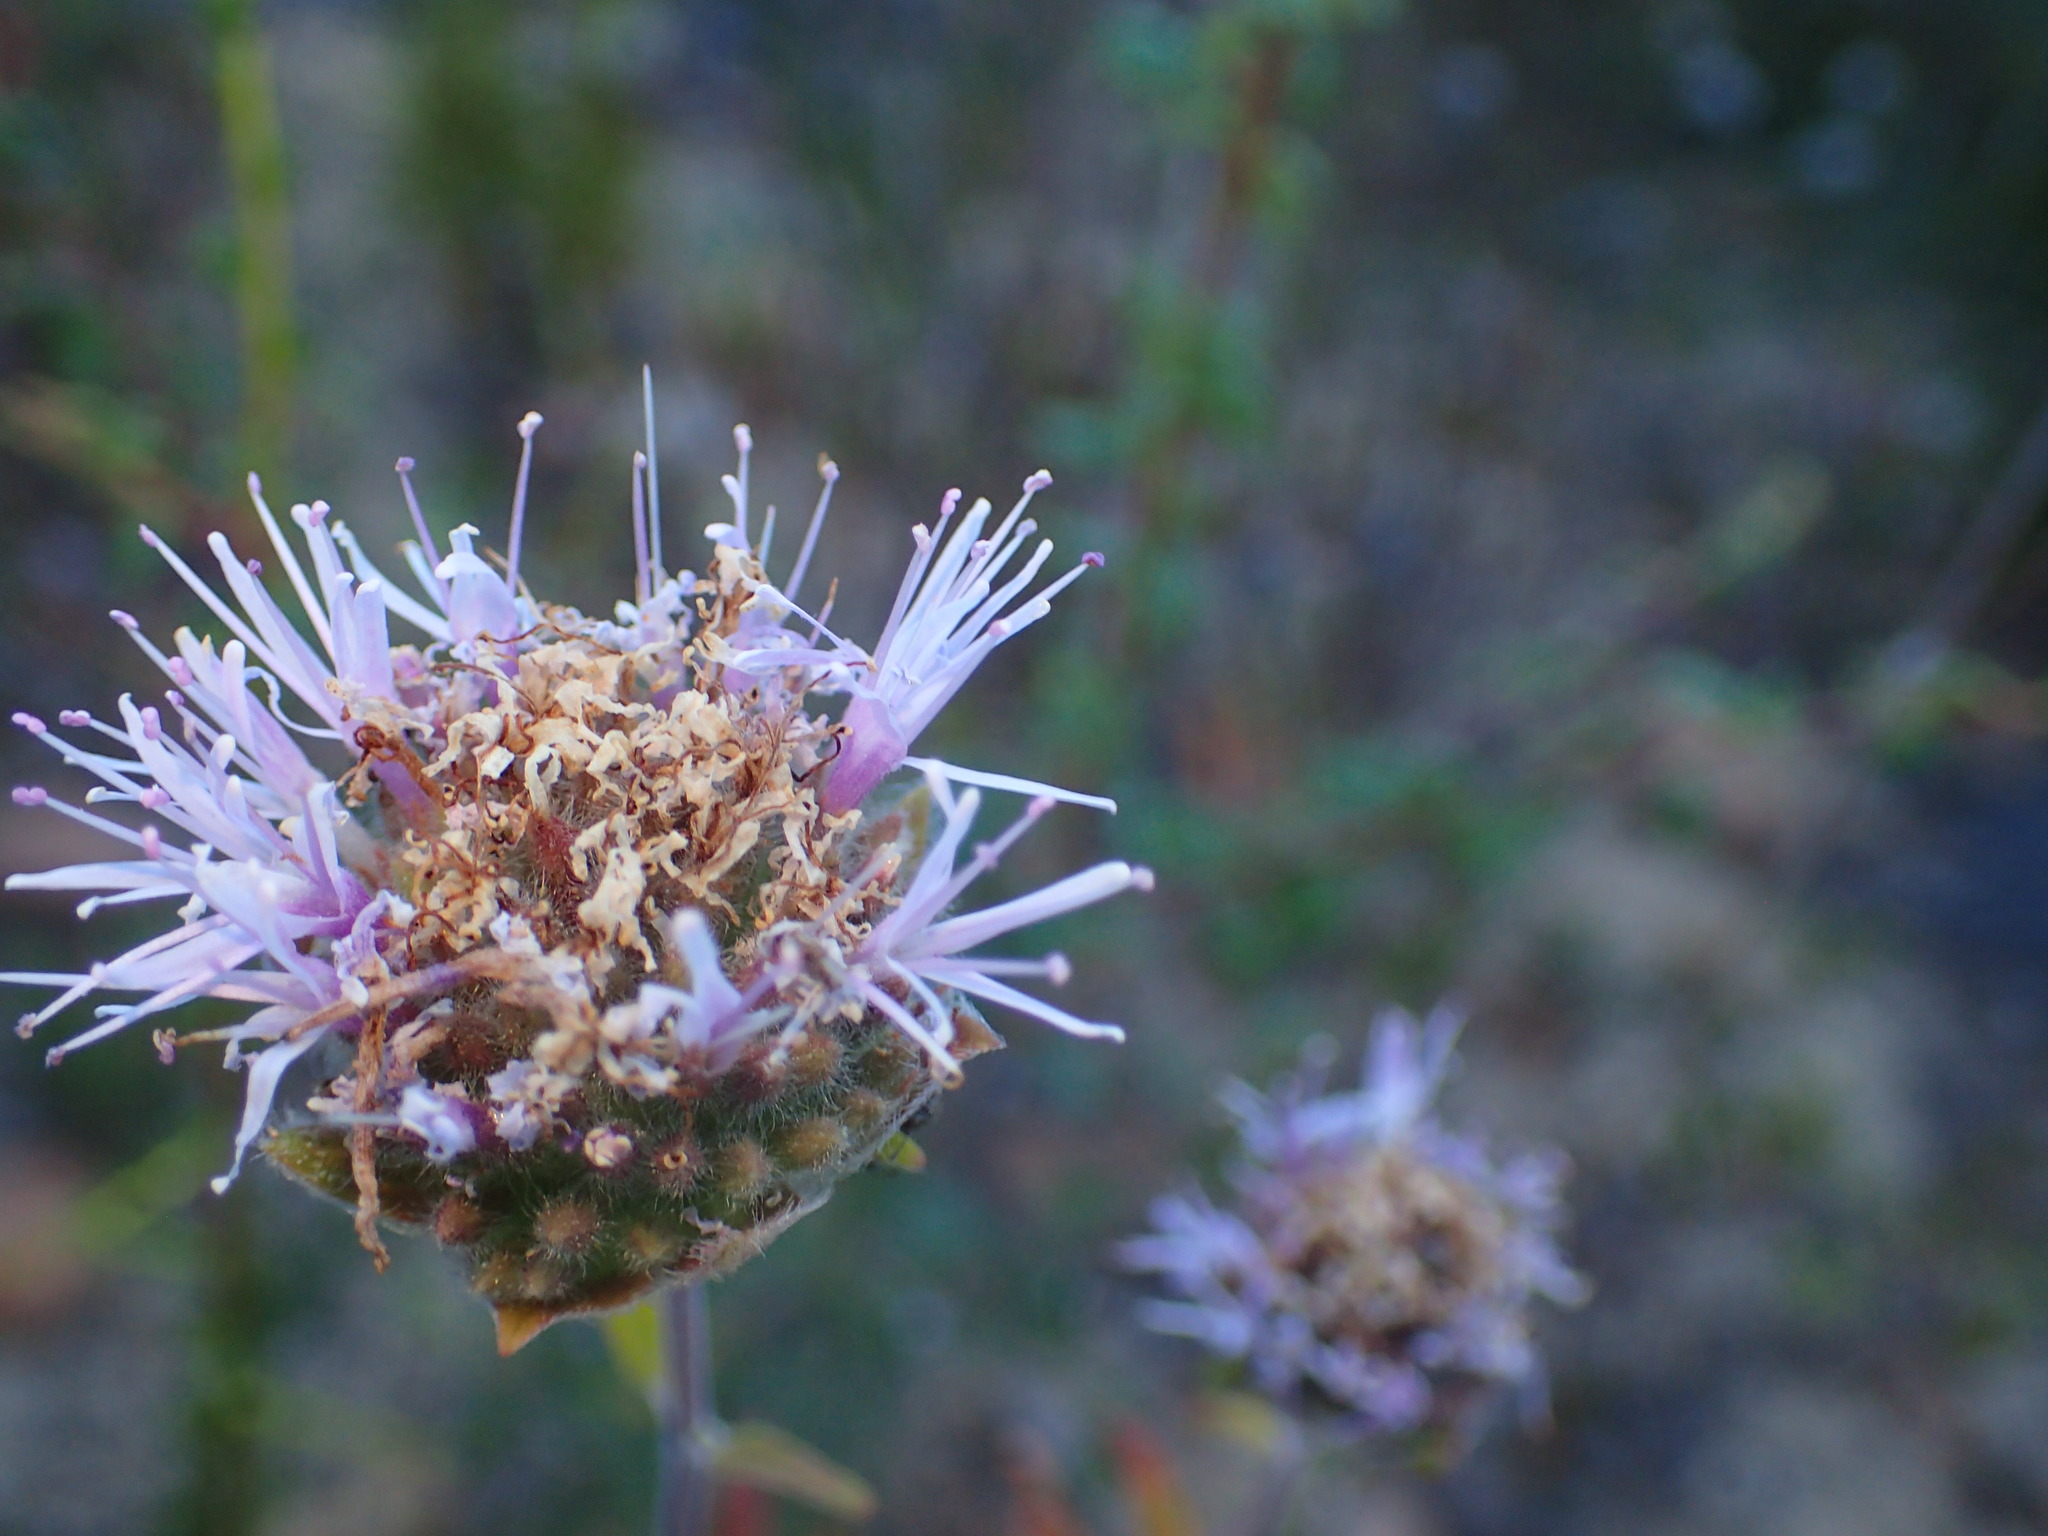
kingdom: Plantae
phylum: Tracheophyta
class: Magnoliopsida
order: Lamiales
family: Lamiaceae
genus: Monardella
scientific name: Monardella hypoleuca
